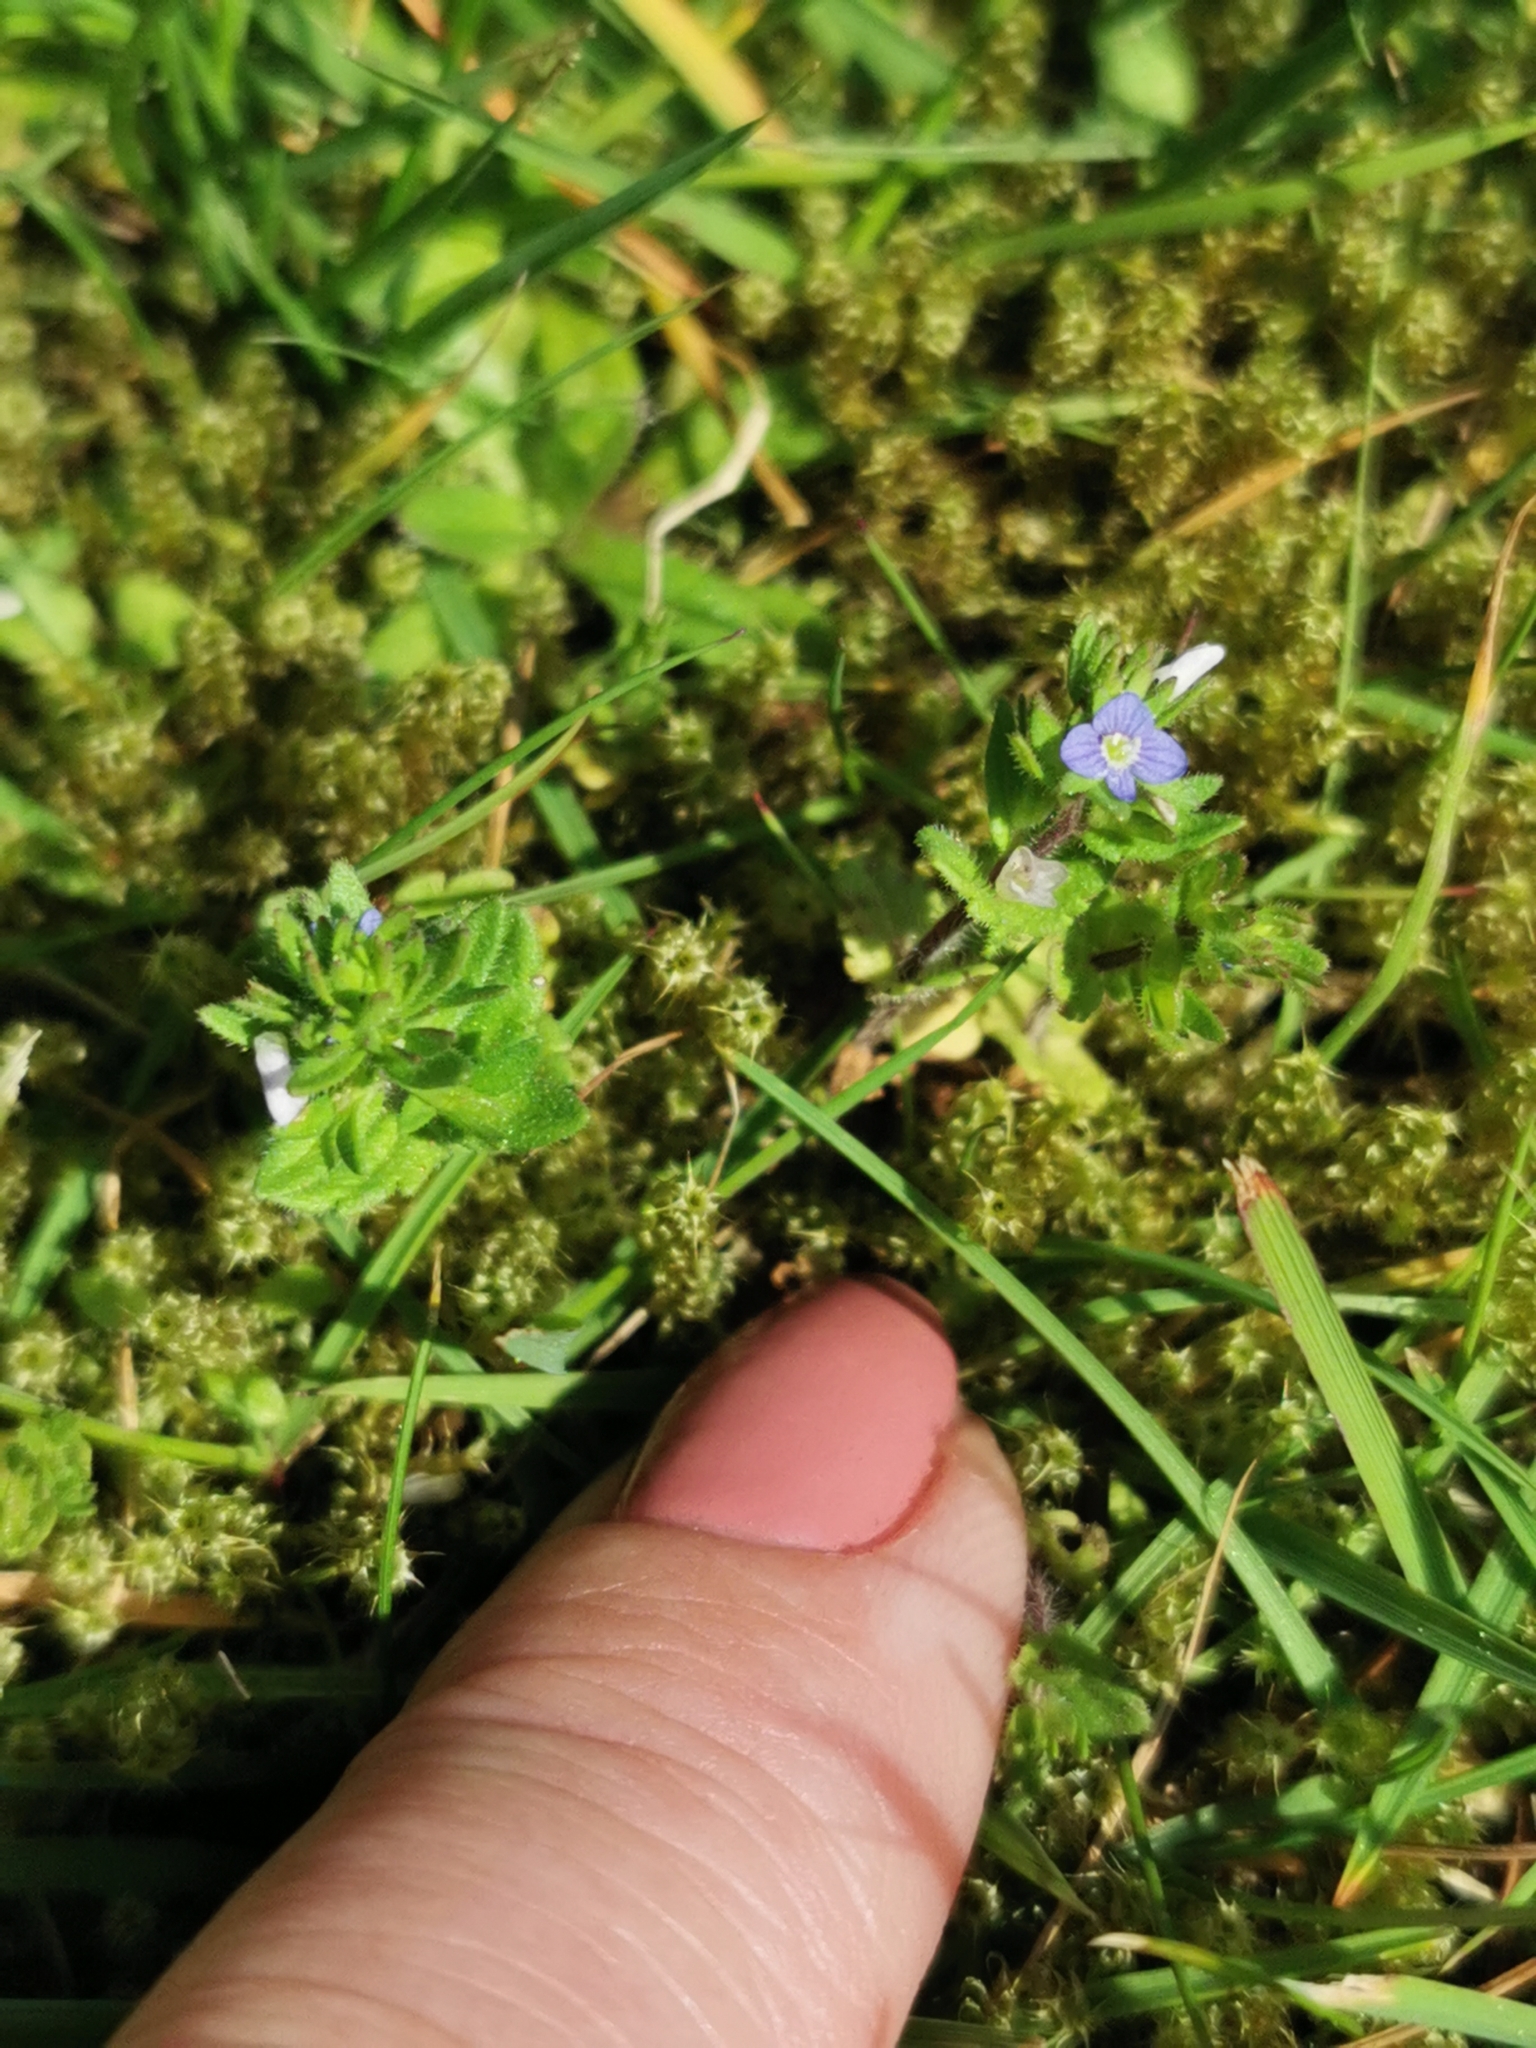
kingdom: Plantae
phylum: Tracheophyta
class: Magnoliopsida
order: Lamiales
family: Plantaginaceae
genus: Veronica
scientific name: Veronica arvensis
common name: Corn speedwell
